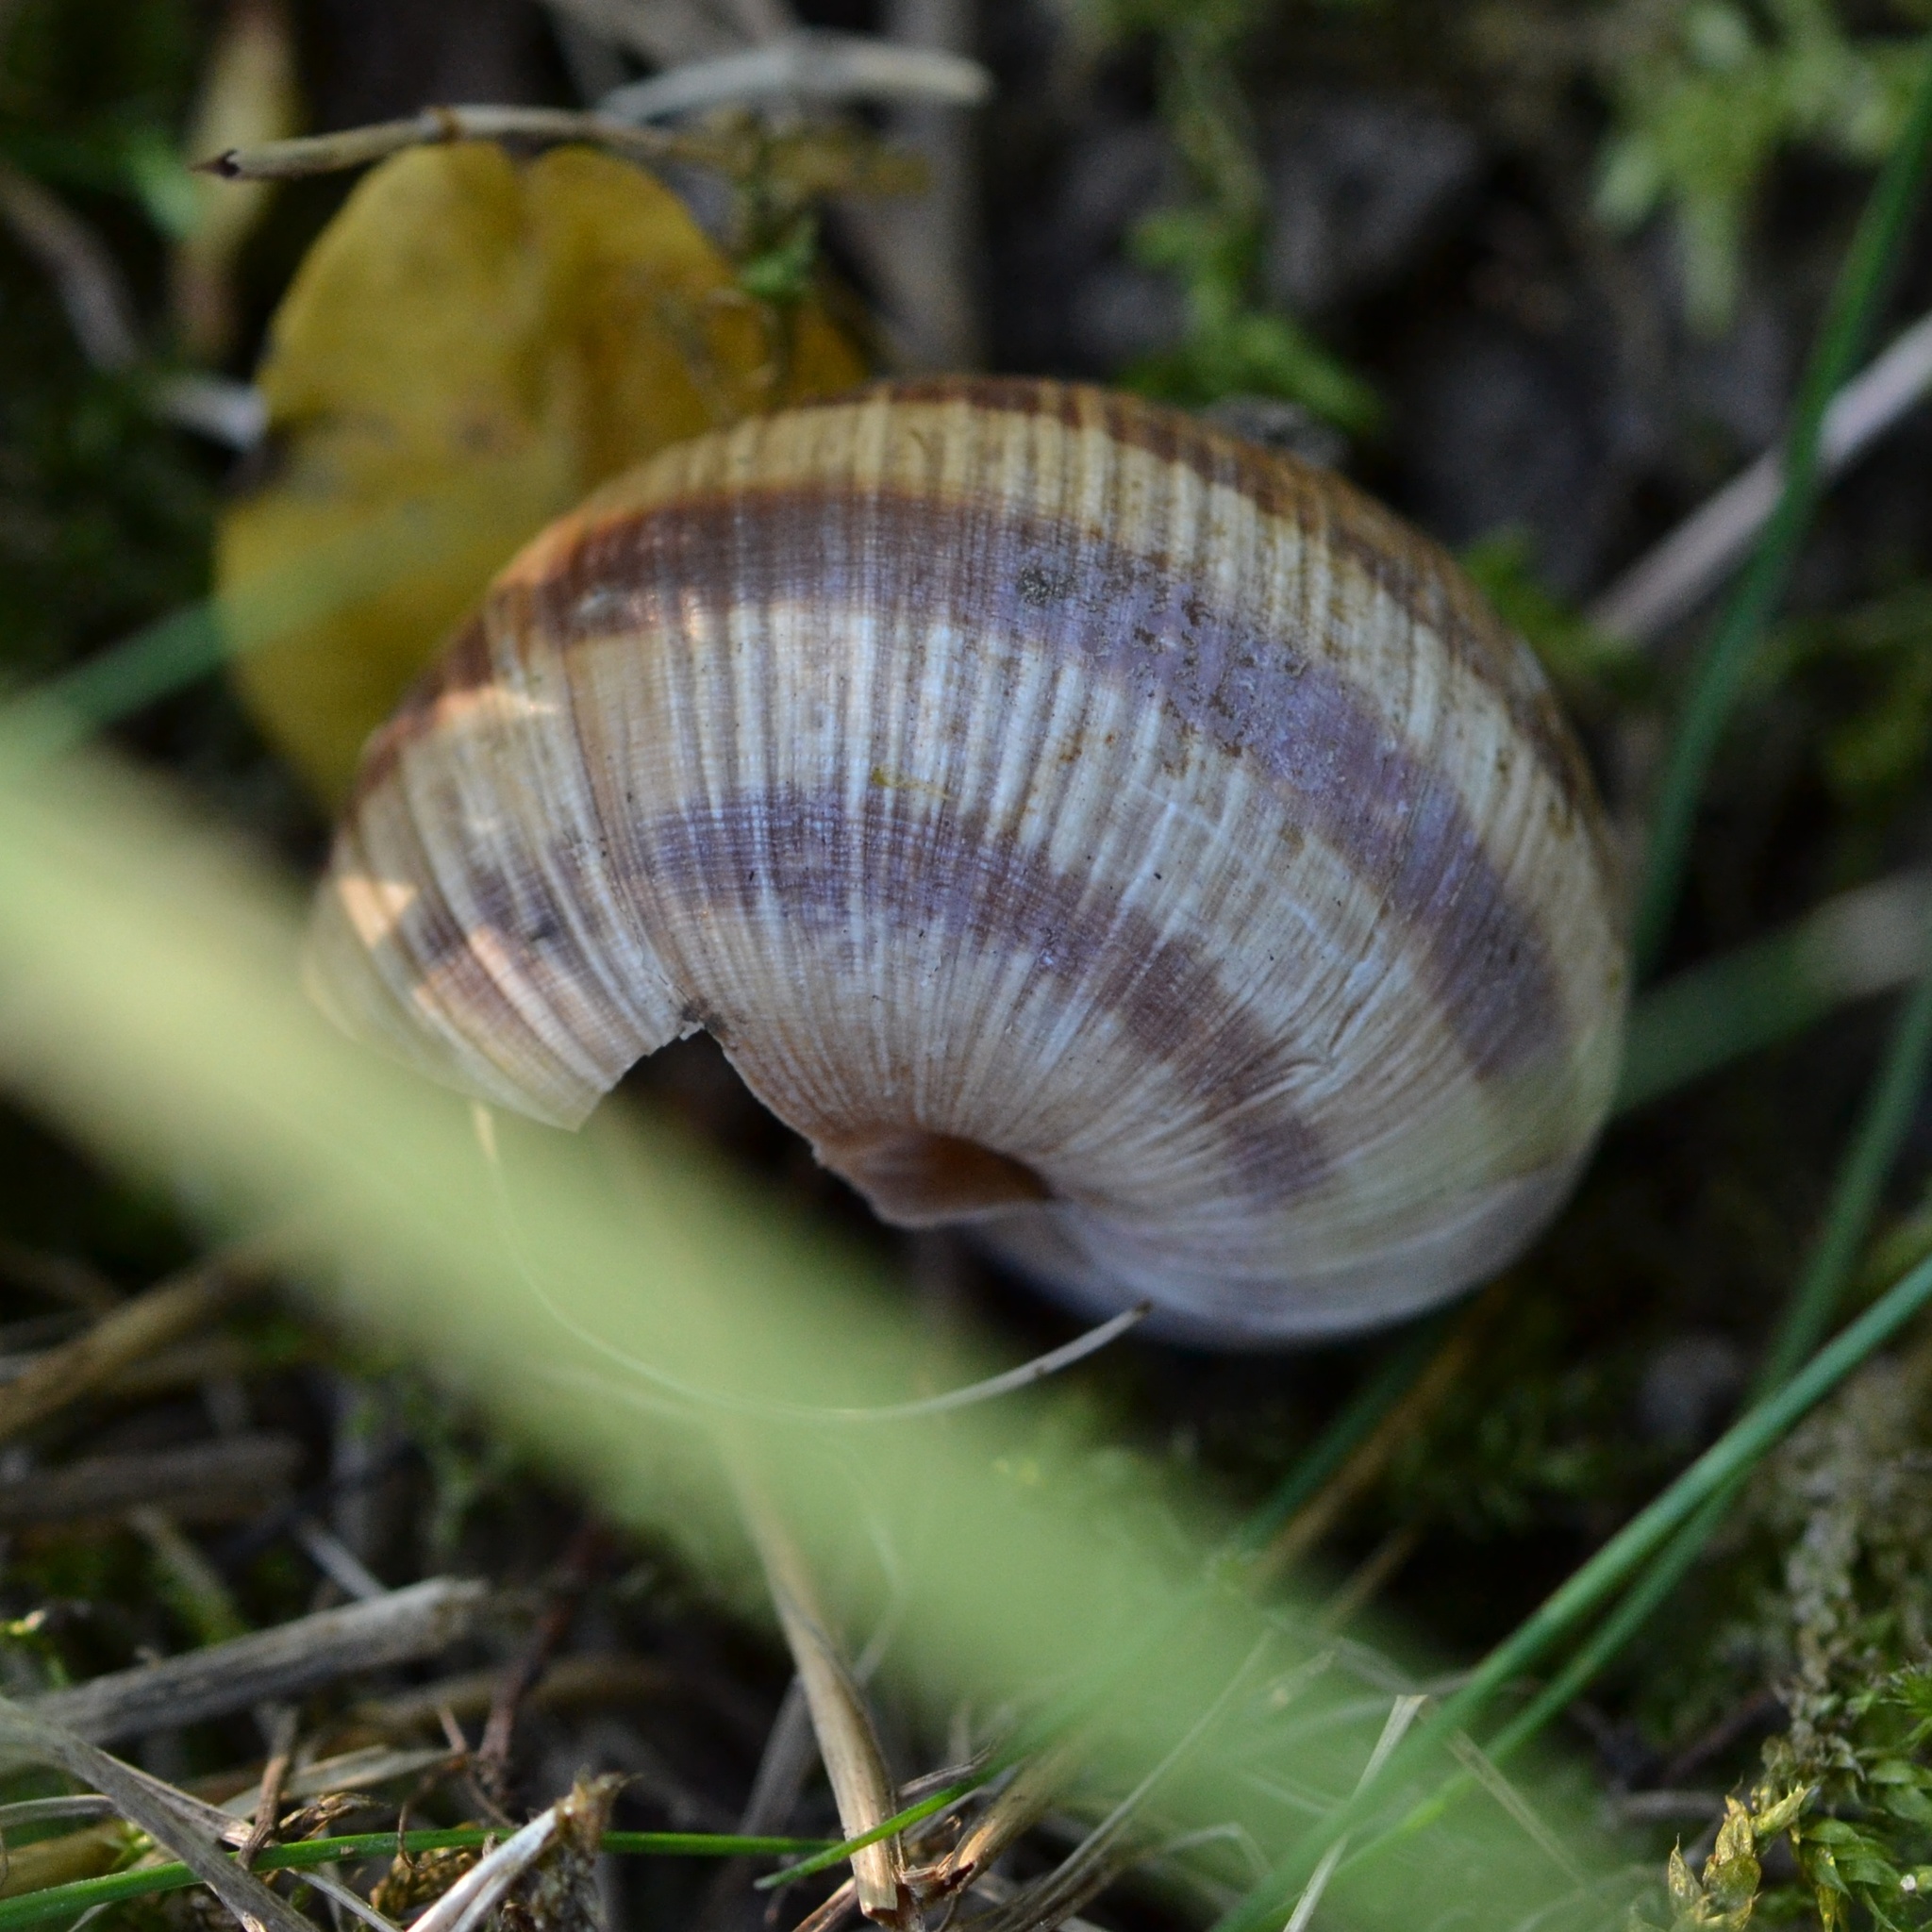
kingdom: Animalia
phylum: Mollusca
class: Gastropoda
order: Stylommatophora
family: Helicidae
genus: Helix
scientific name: Helix pomatia
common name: Roman snail
